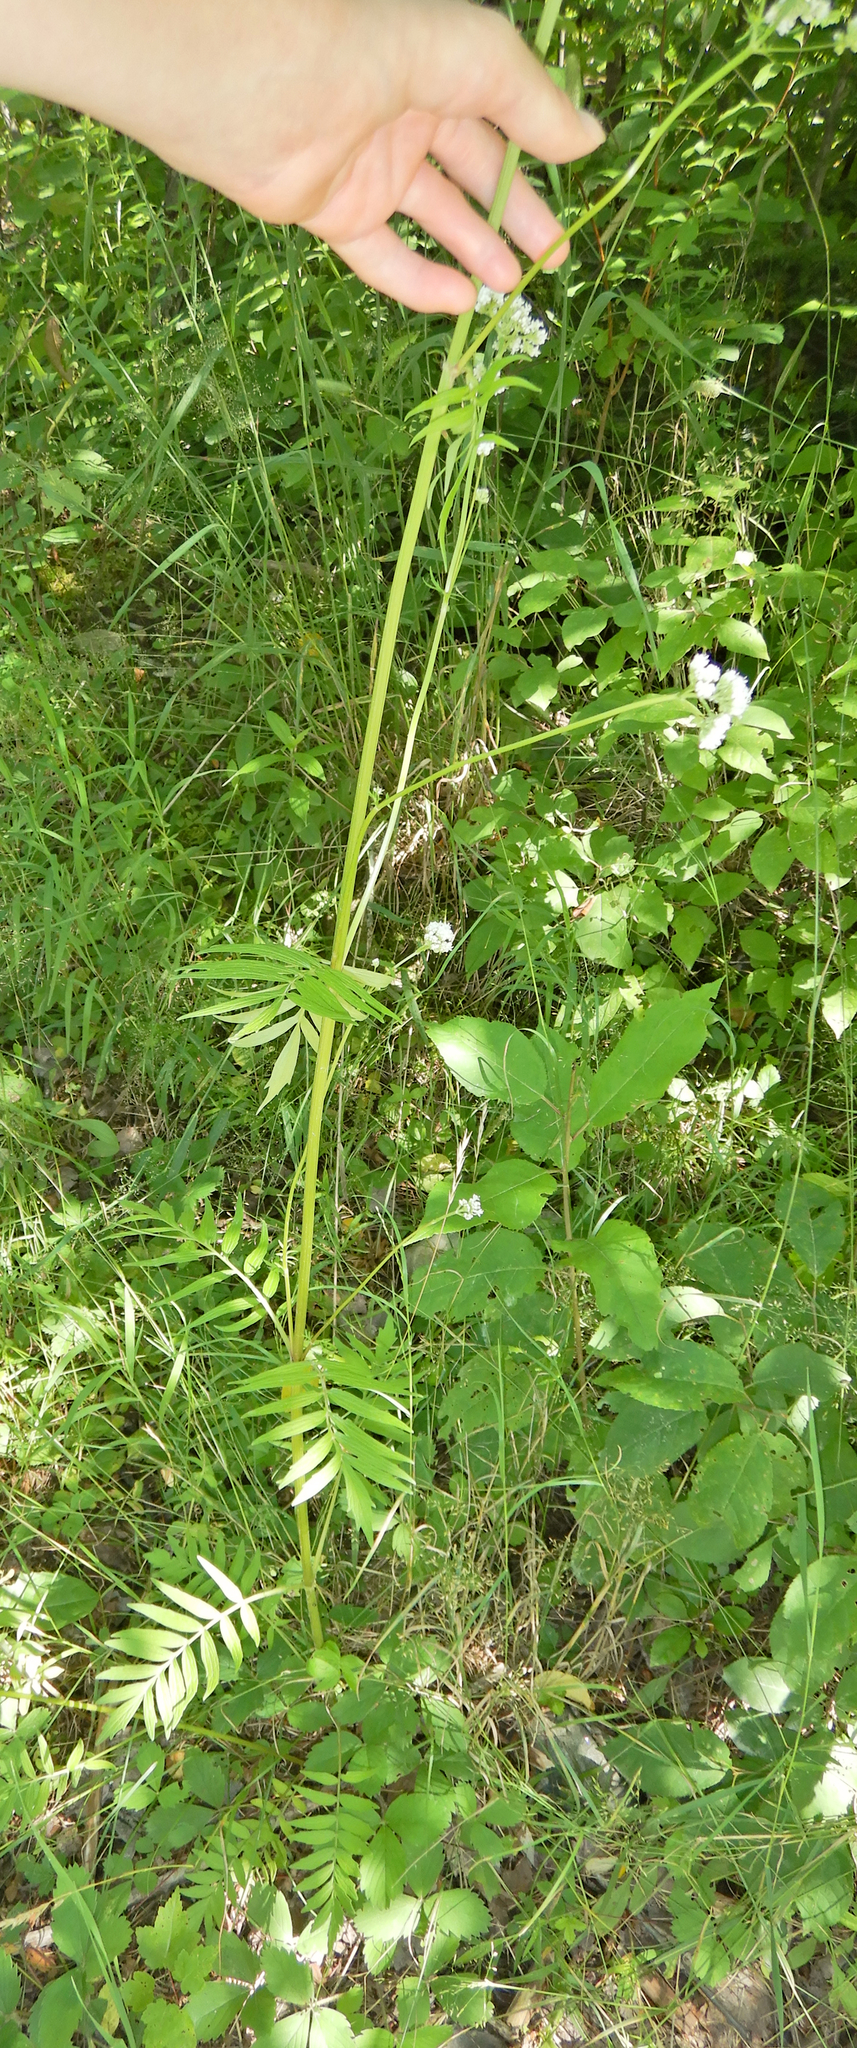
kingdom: Plantae
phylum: Tracheophyta
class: Magnoliopsida
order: Dipsacales
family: Caprifoliaceae
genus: Valeriana
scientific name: Valeriana officinalis
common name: Common valerian
